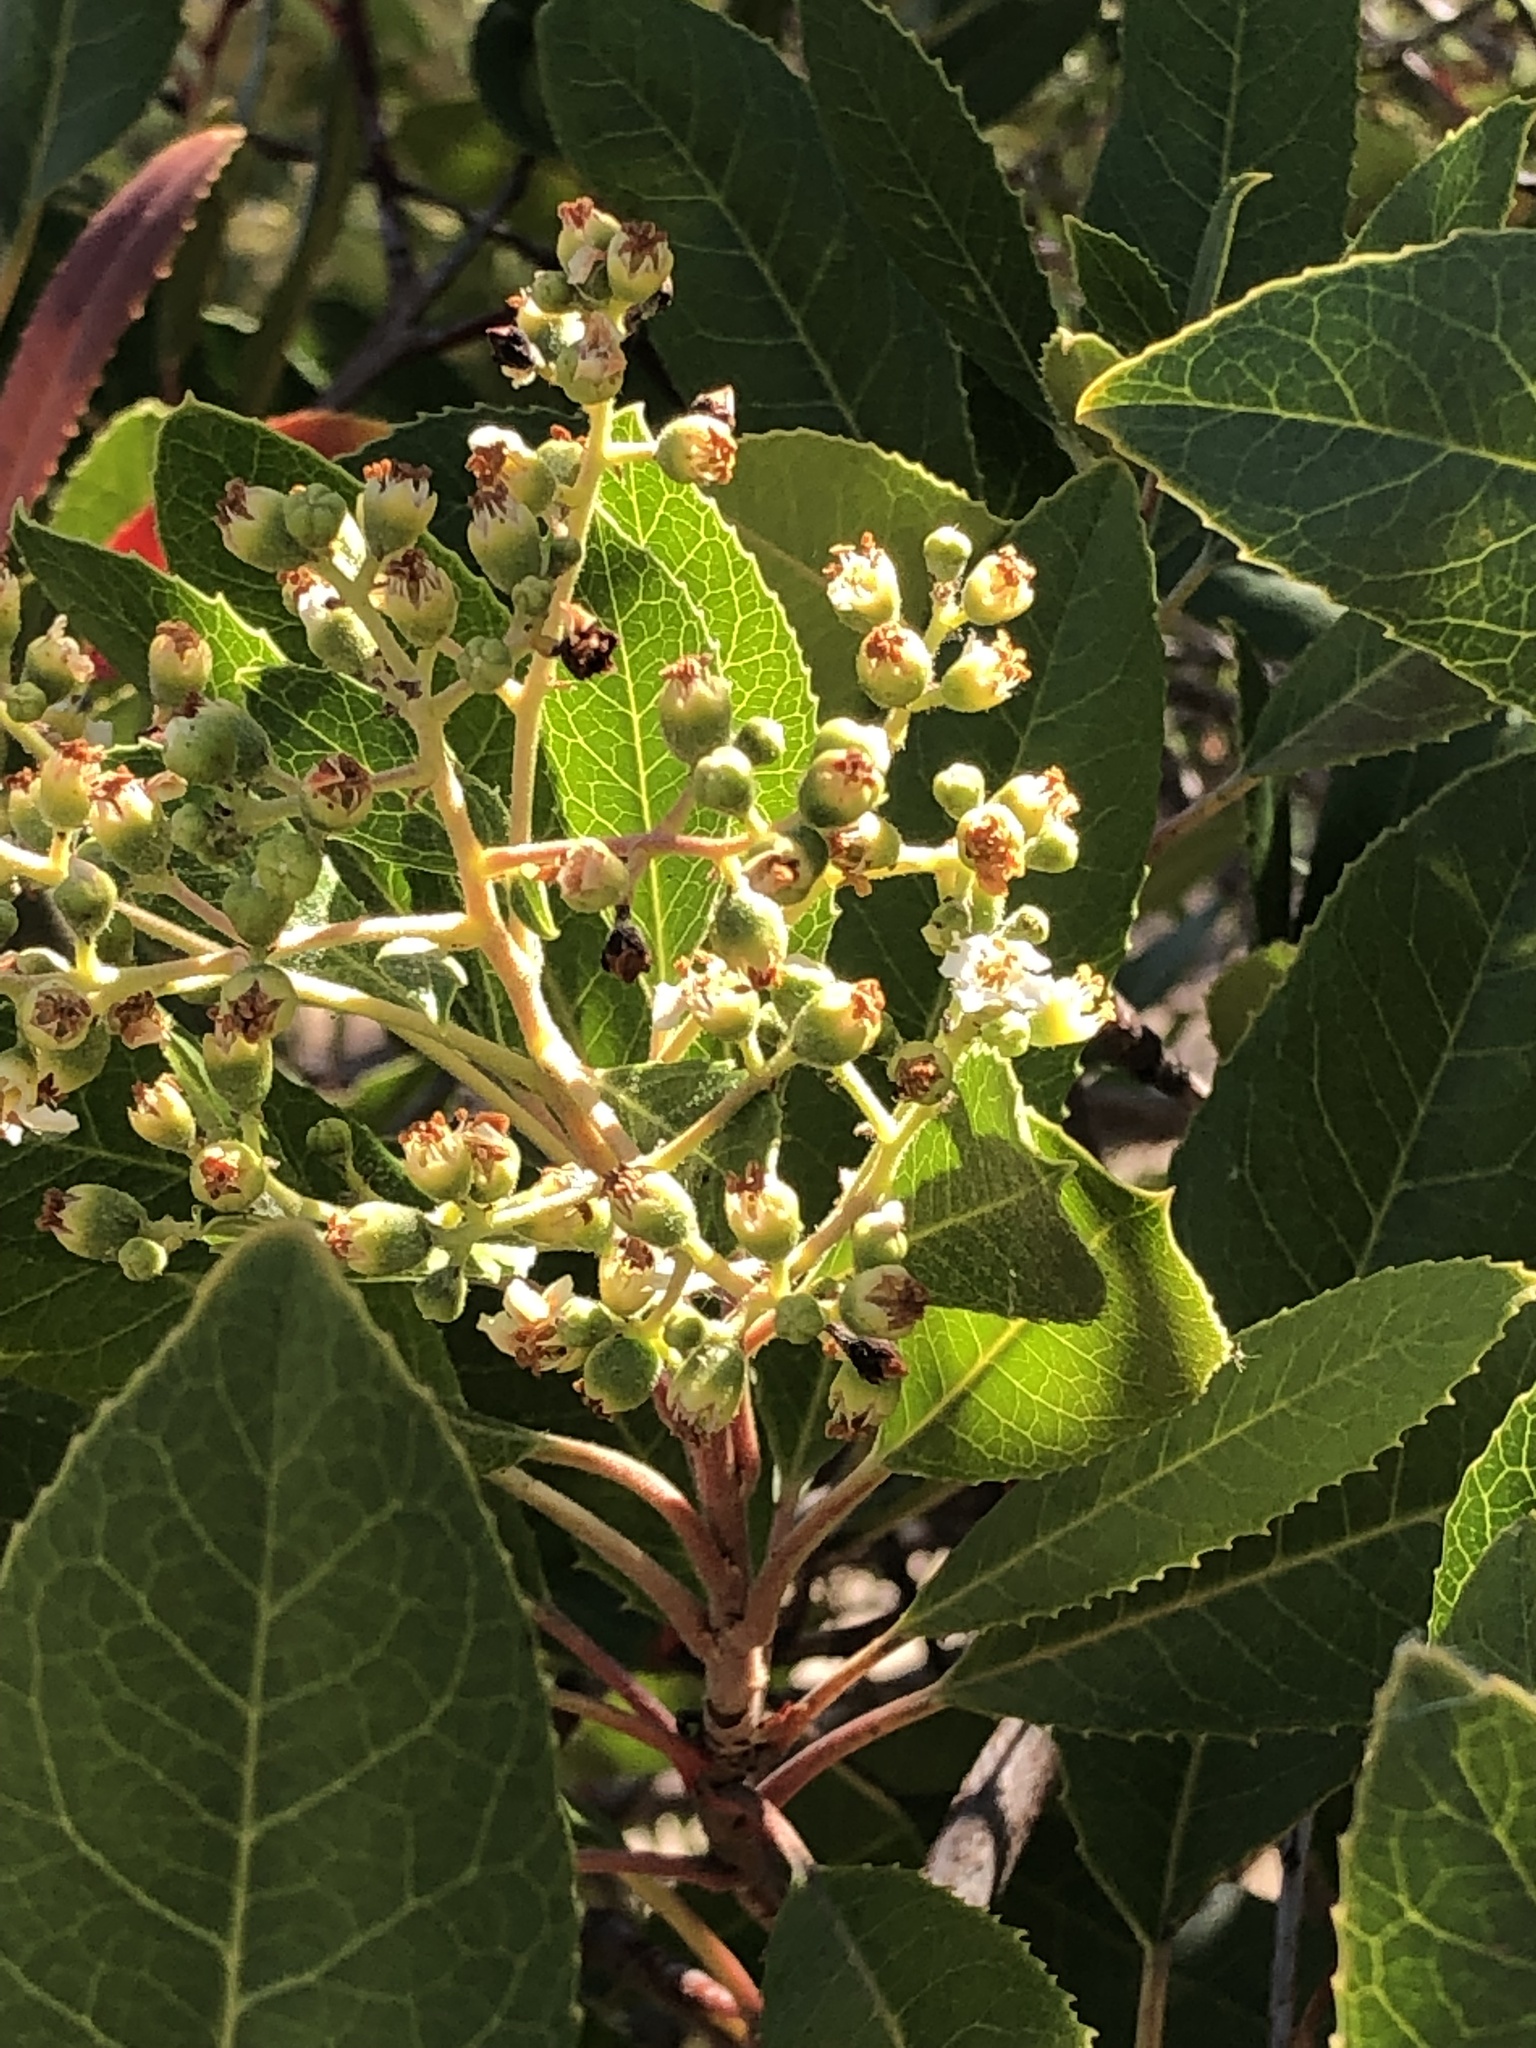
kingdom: Plantae
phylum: Tracheophyta
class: Magnoliopsida
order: Rosales
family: Rosaceae
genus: Heteromeles
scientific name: Heteromeles arbutifolia
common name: California-holly
